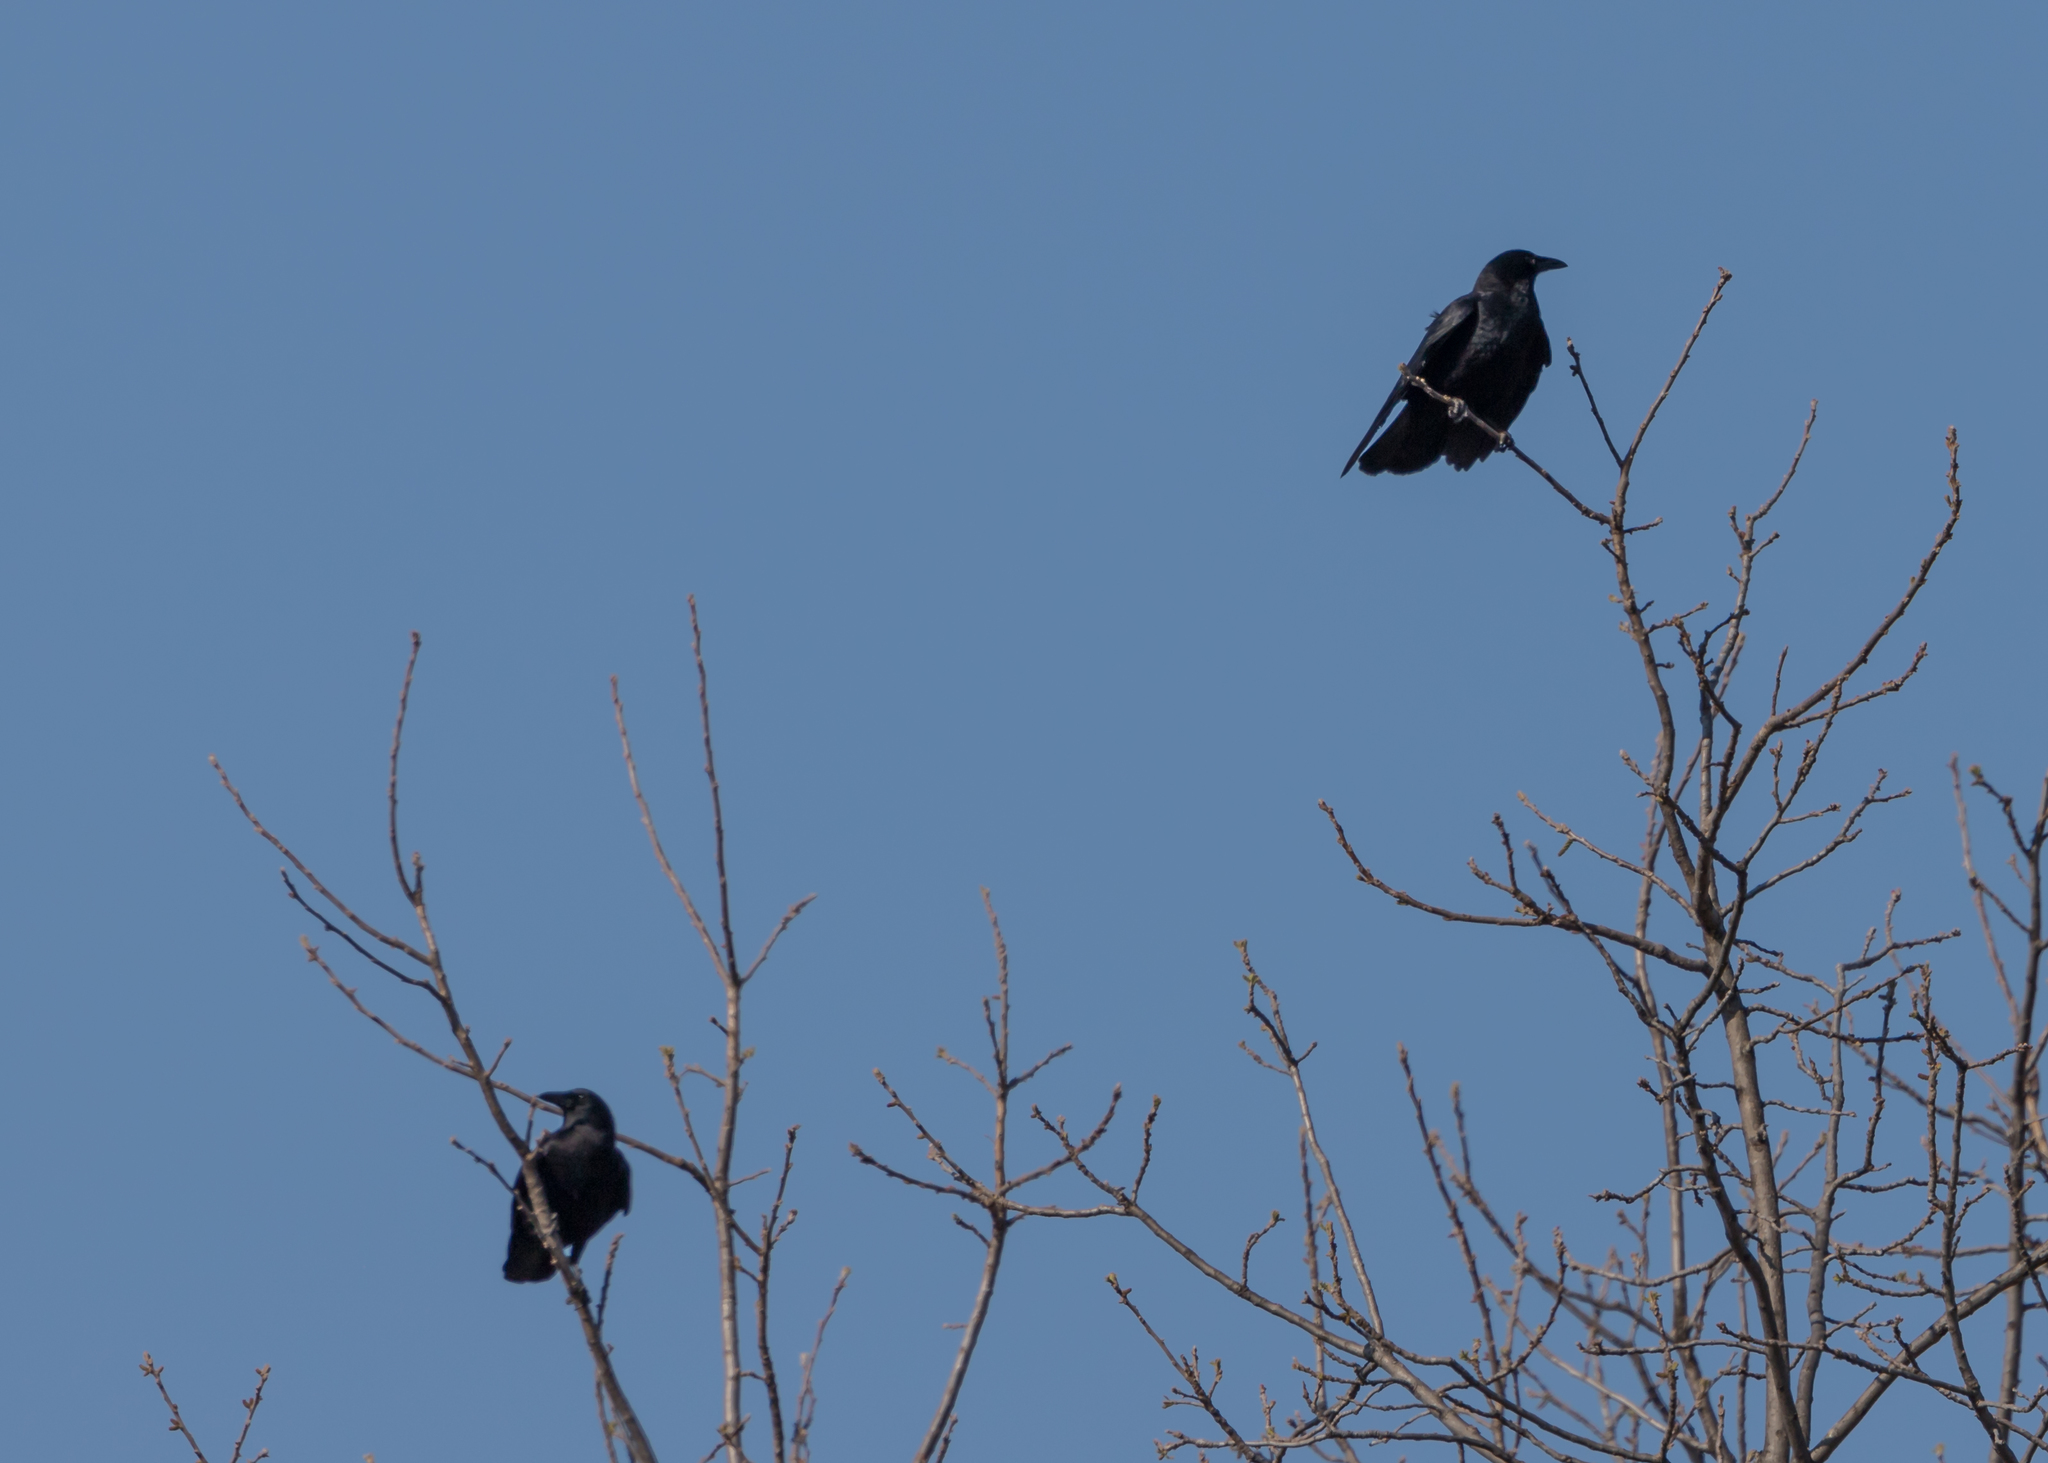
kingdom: Animalia
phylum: Chordata
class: Aves
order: Passeriformes
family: Corvidae
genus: Corvus
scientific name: Corvus brachyrhynchos
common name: American crow
